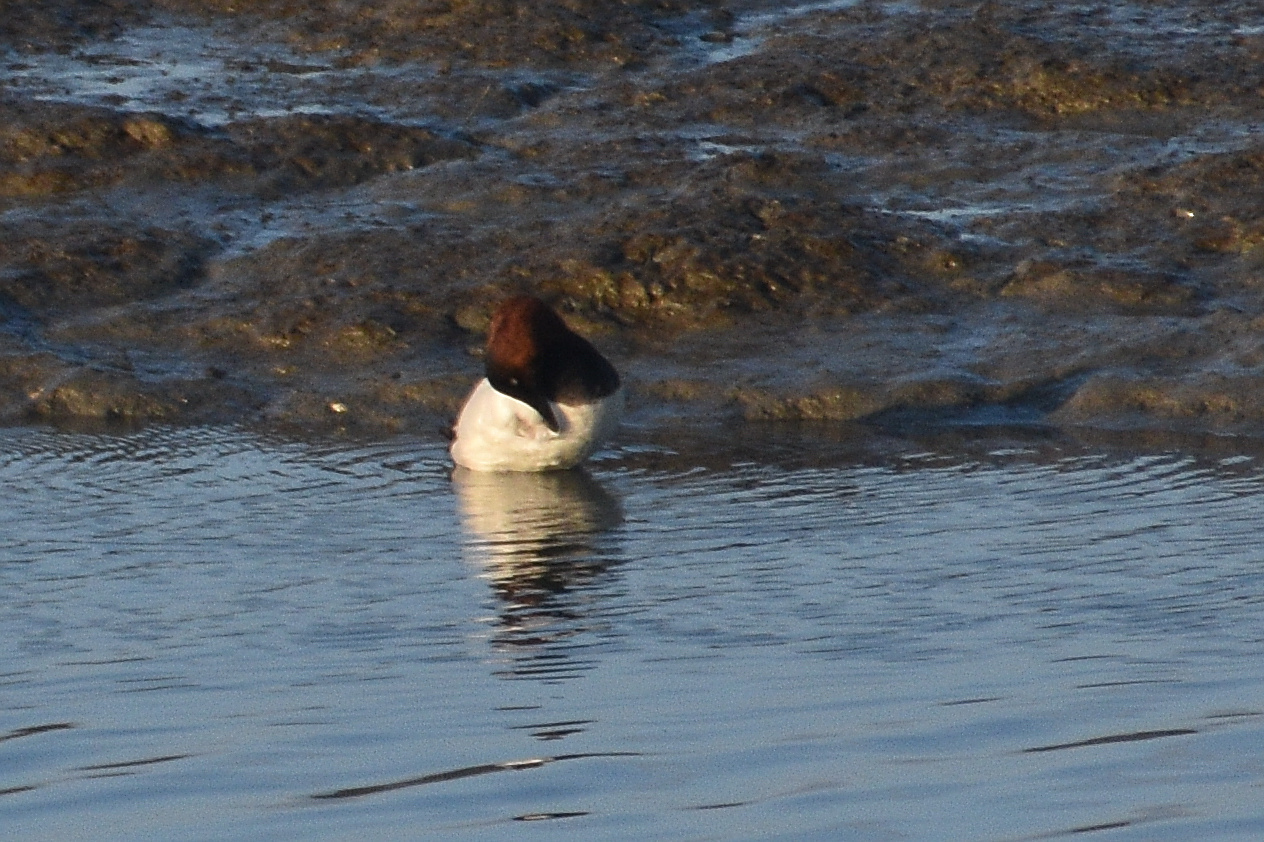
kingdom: Animalia
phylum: Chordata
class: Aves
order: Anseriformes
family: Anatidae
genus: Aythya
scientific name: Aythya valisineria
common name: Canvasback
